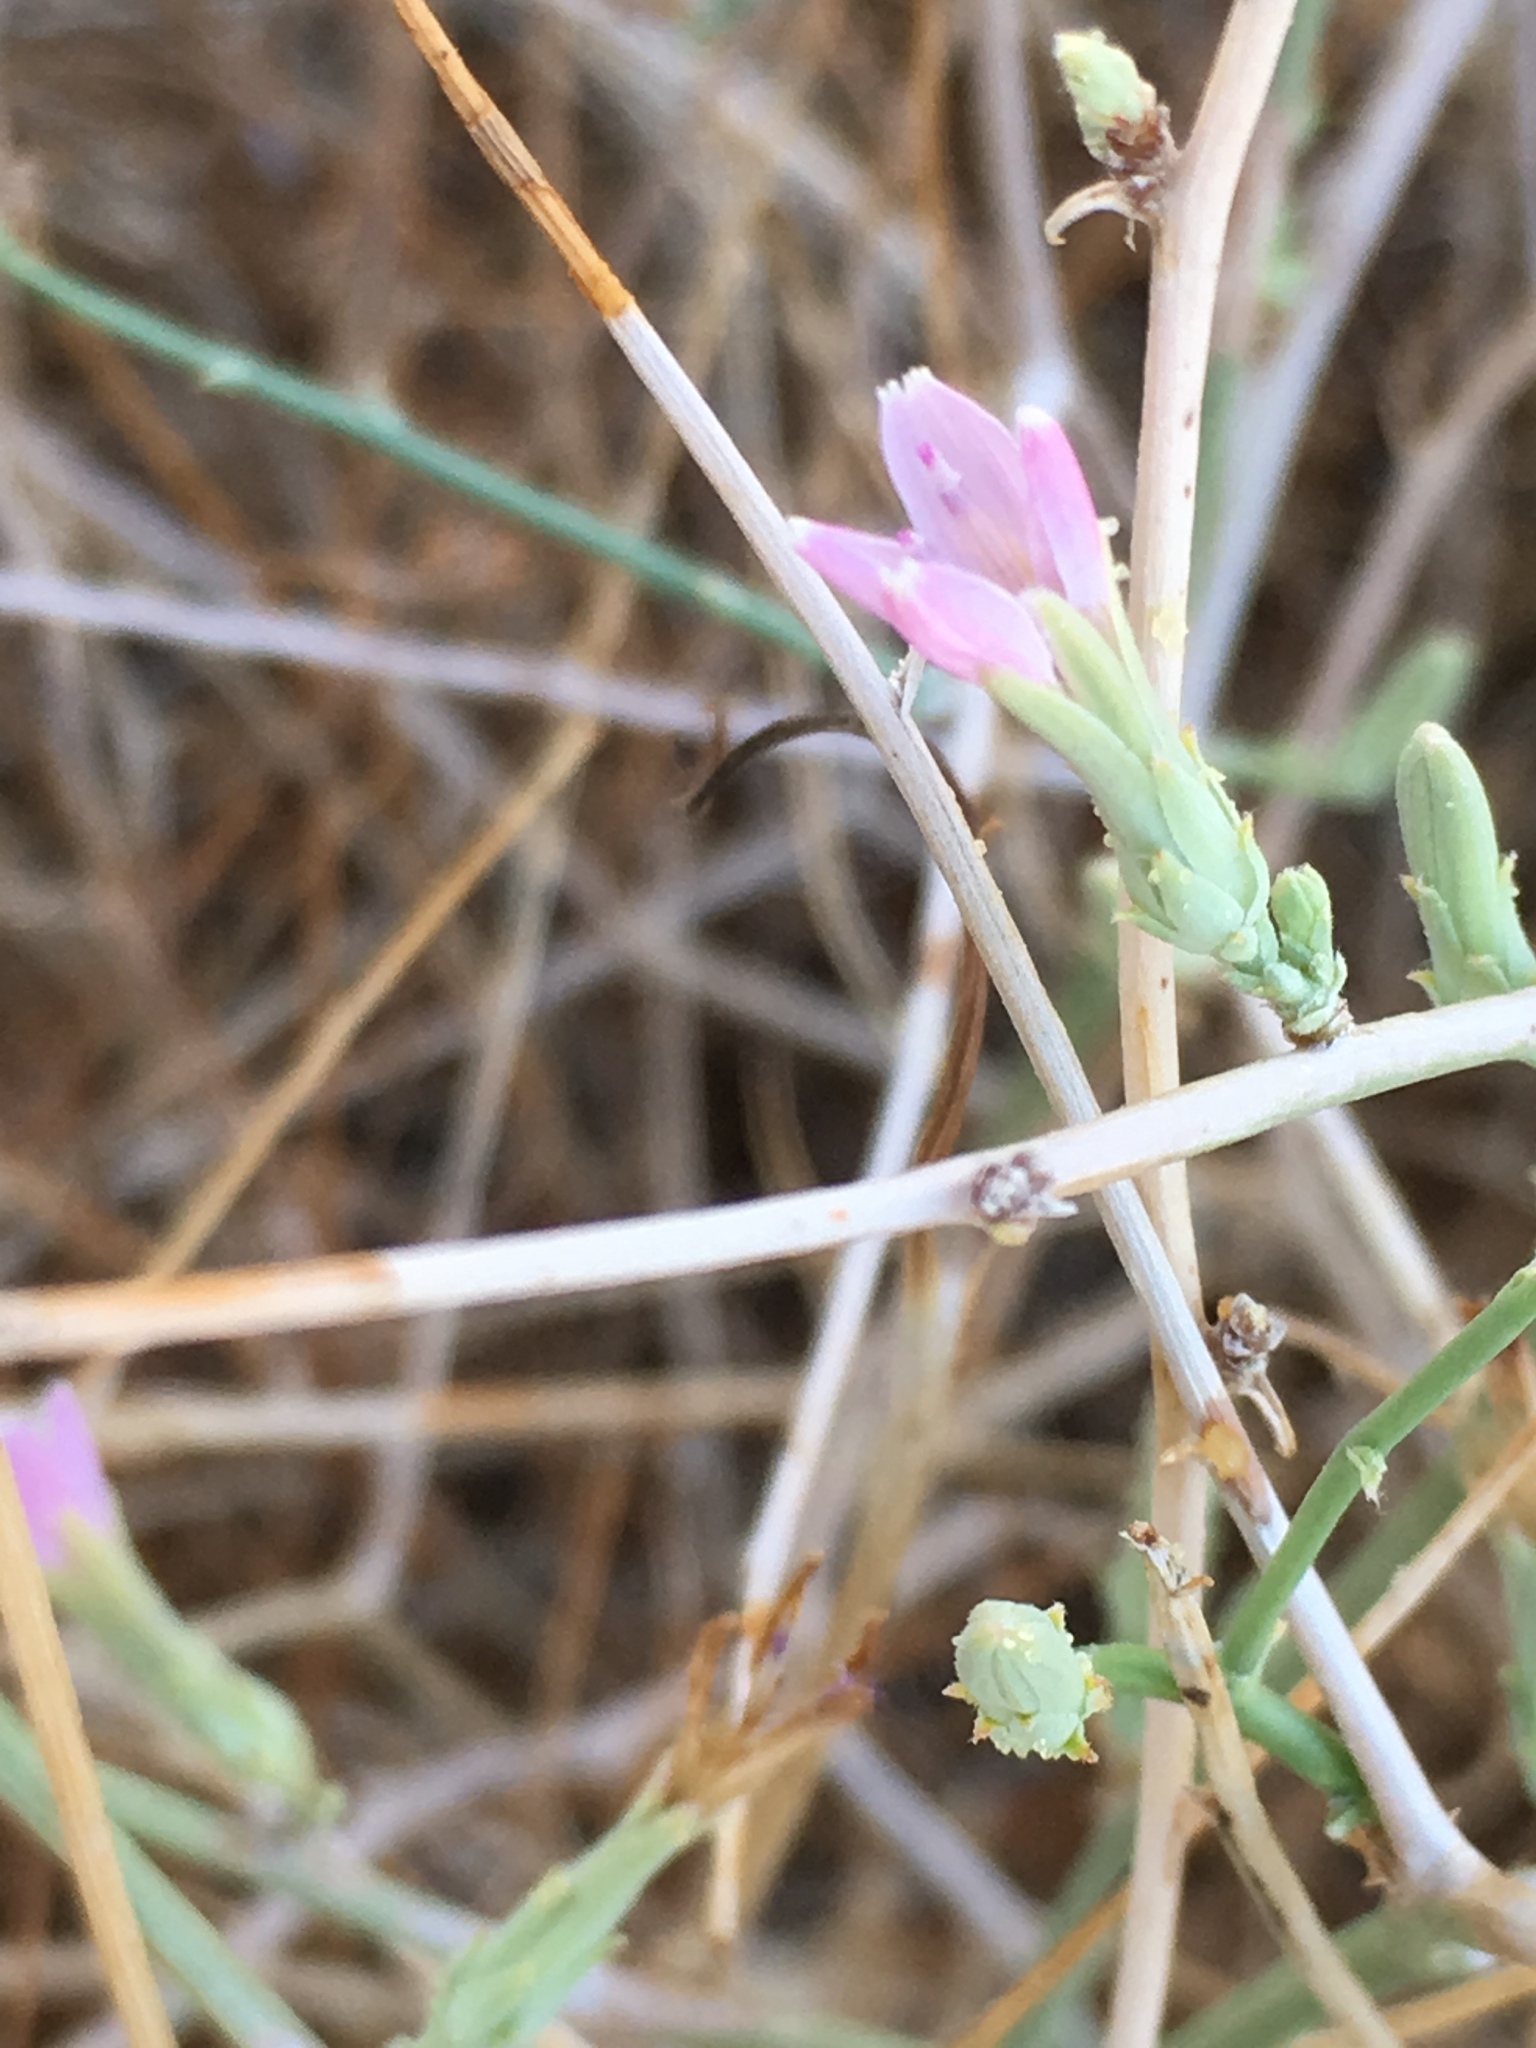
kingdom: Plantae
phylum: Tracheophyta
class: Magnoliopsida
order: Asterales
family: Asteraceae
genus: Stephanomeria
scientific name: Stephanomeria pauciflora
